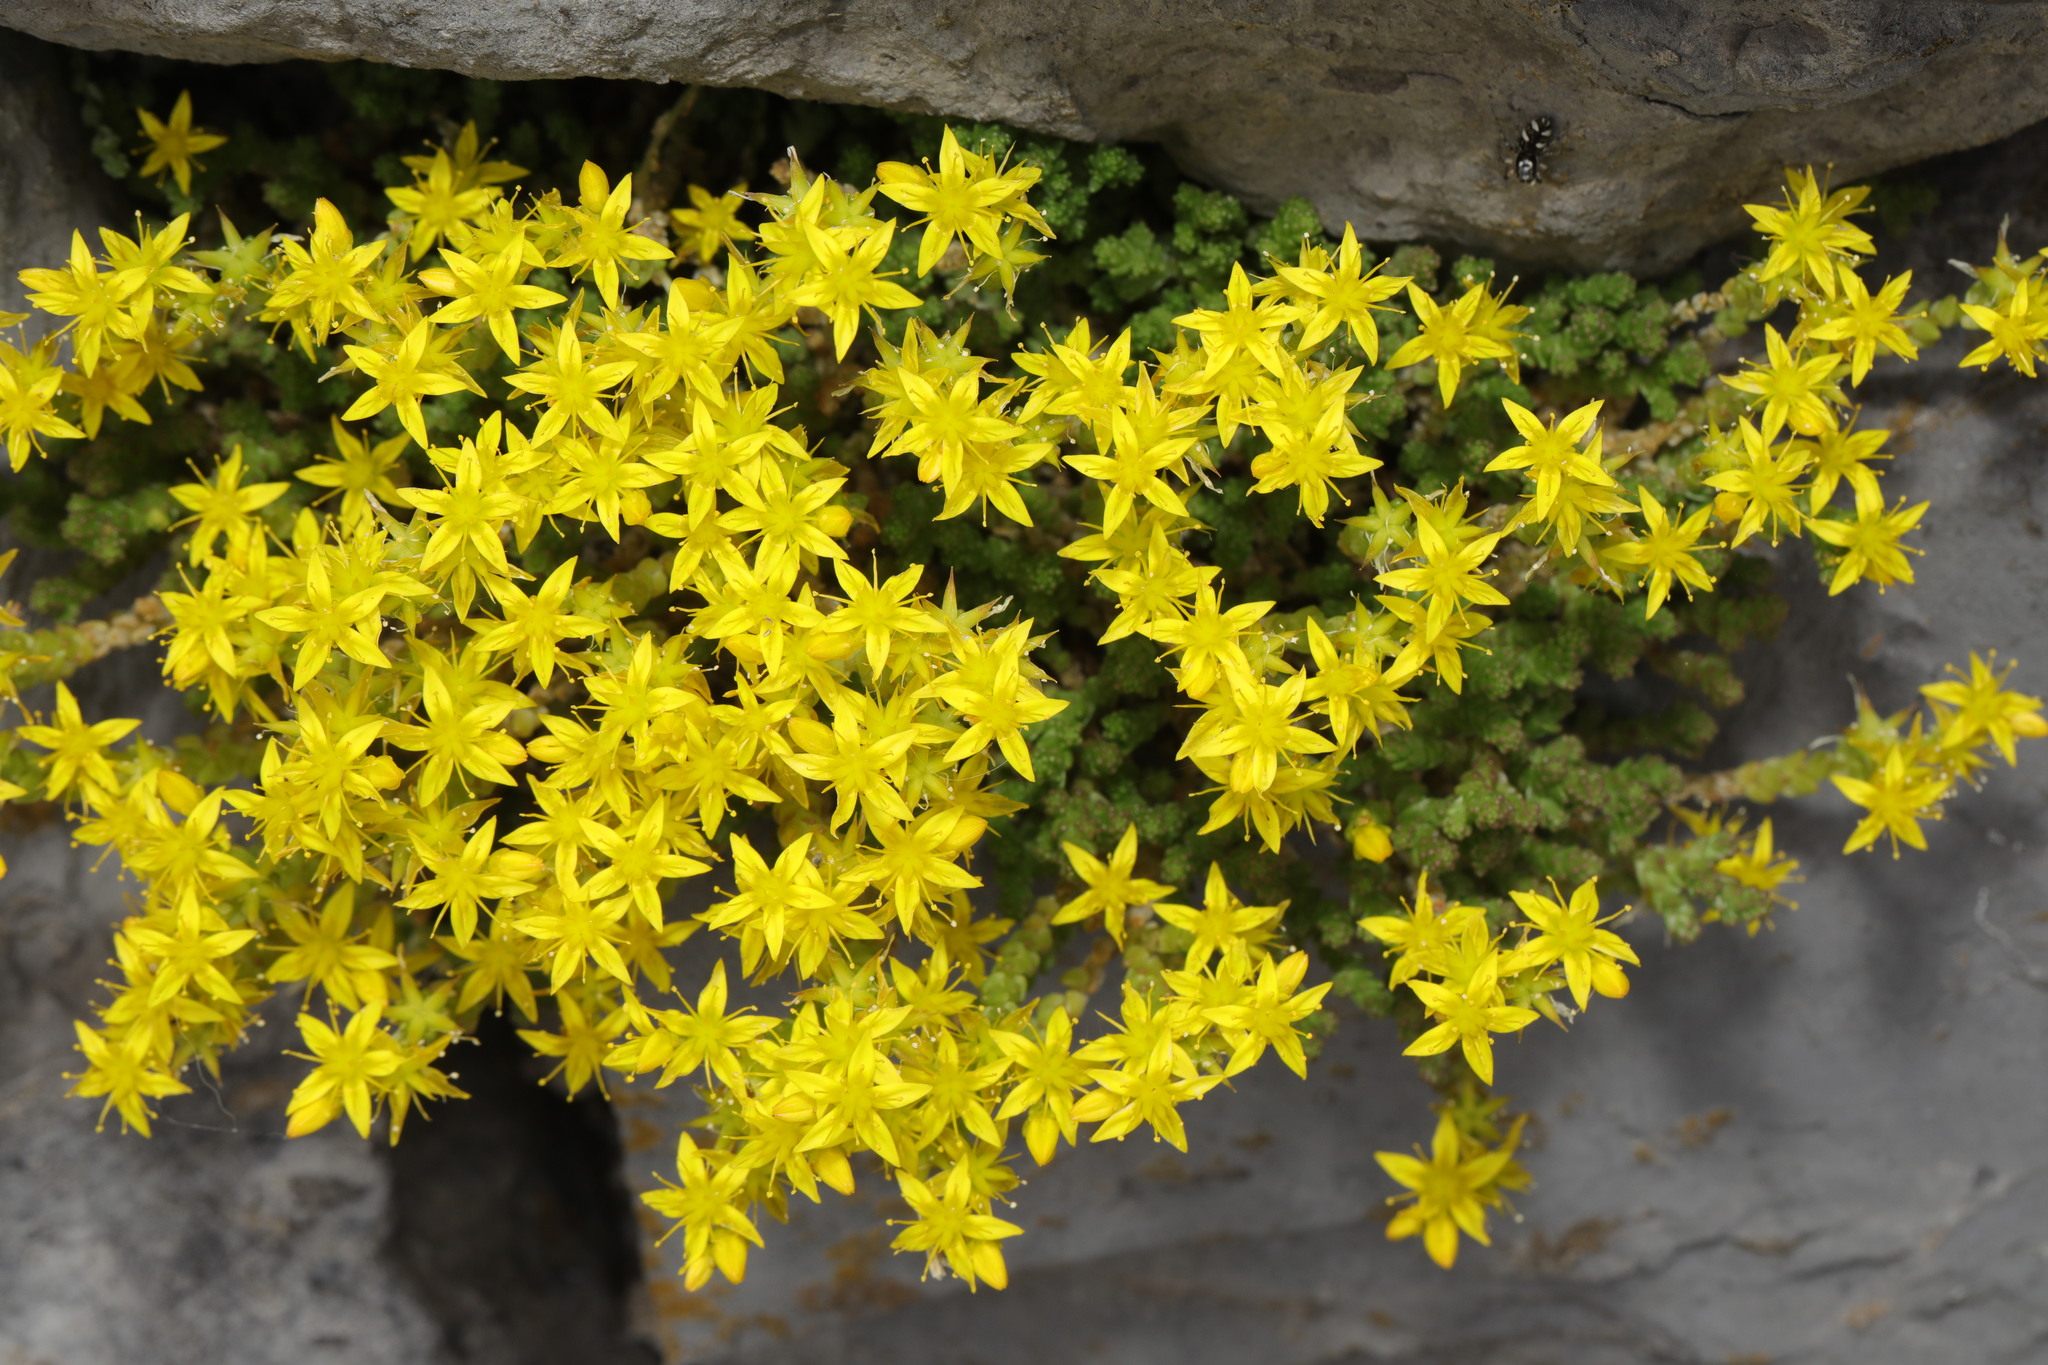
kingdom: Plantae
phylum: Tracheophyta
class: Magnoliopsida
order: Saxifragales
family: Crassulaceae
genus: Sedum
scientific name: Sedum acre
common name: Biting stonecrop
